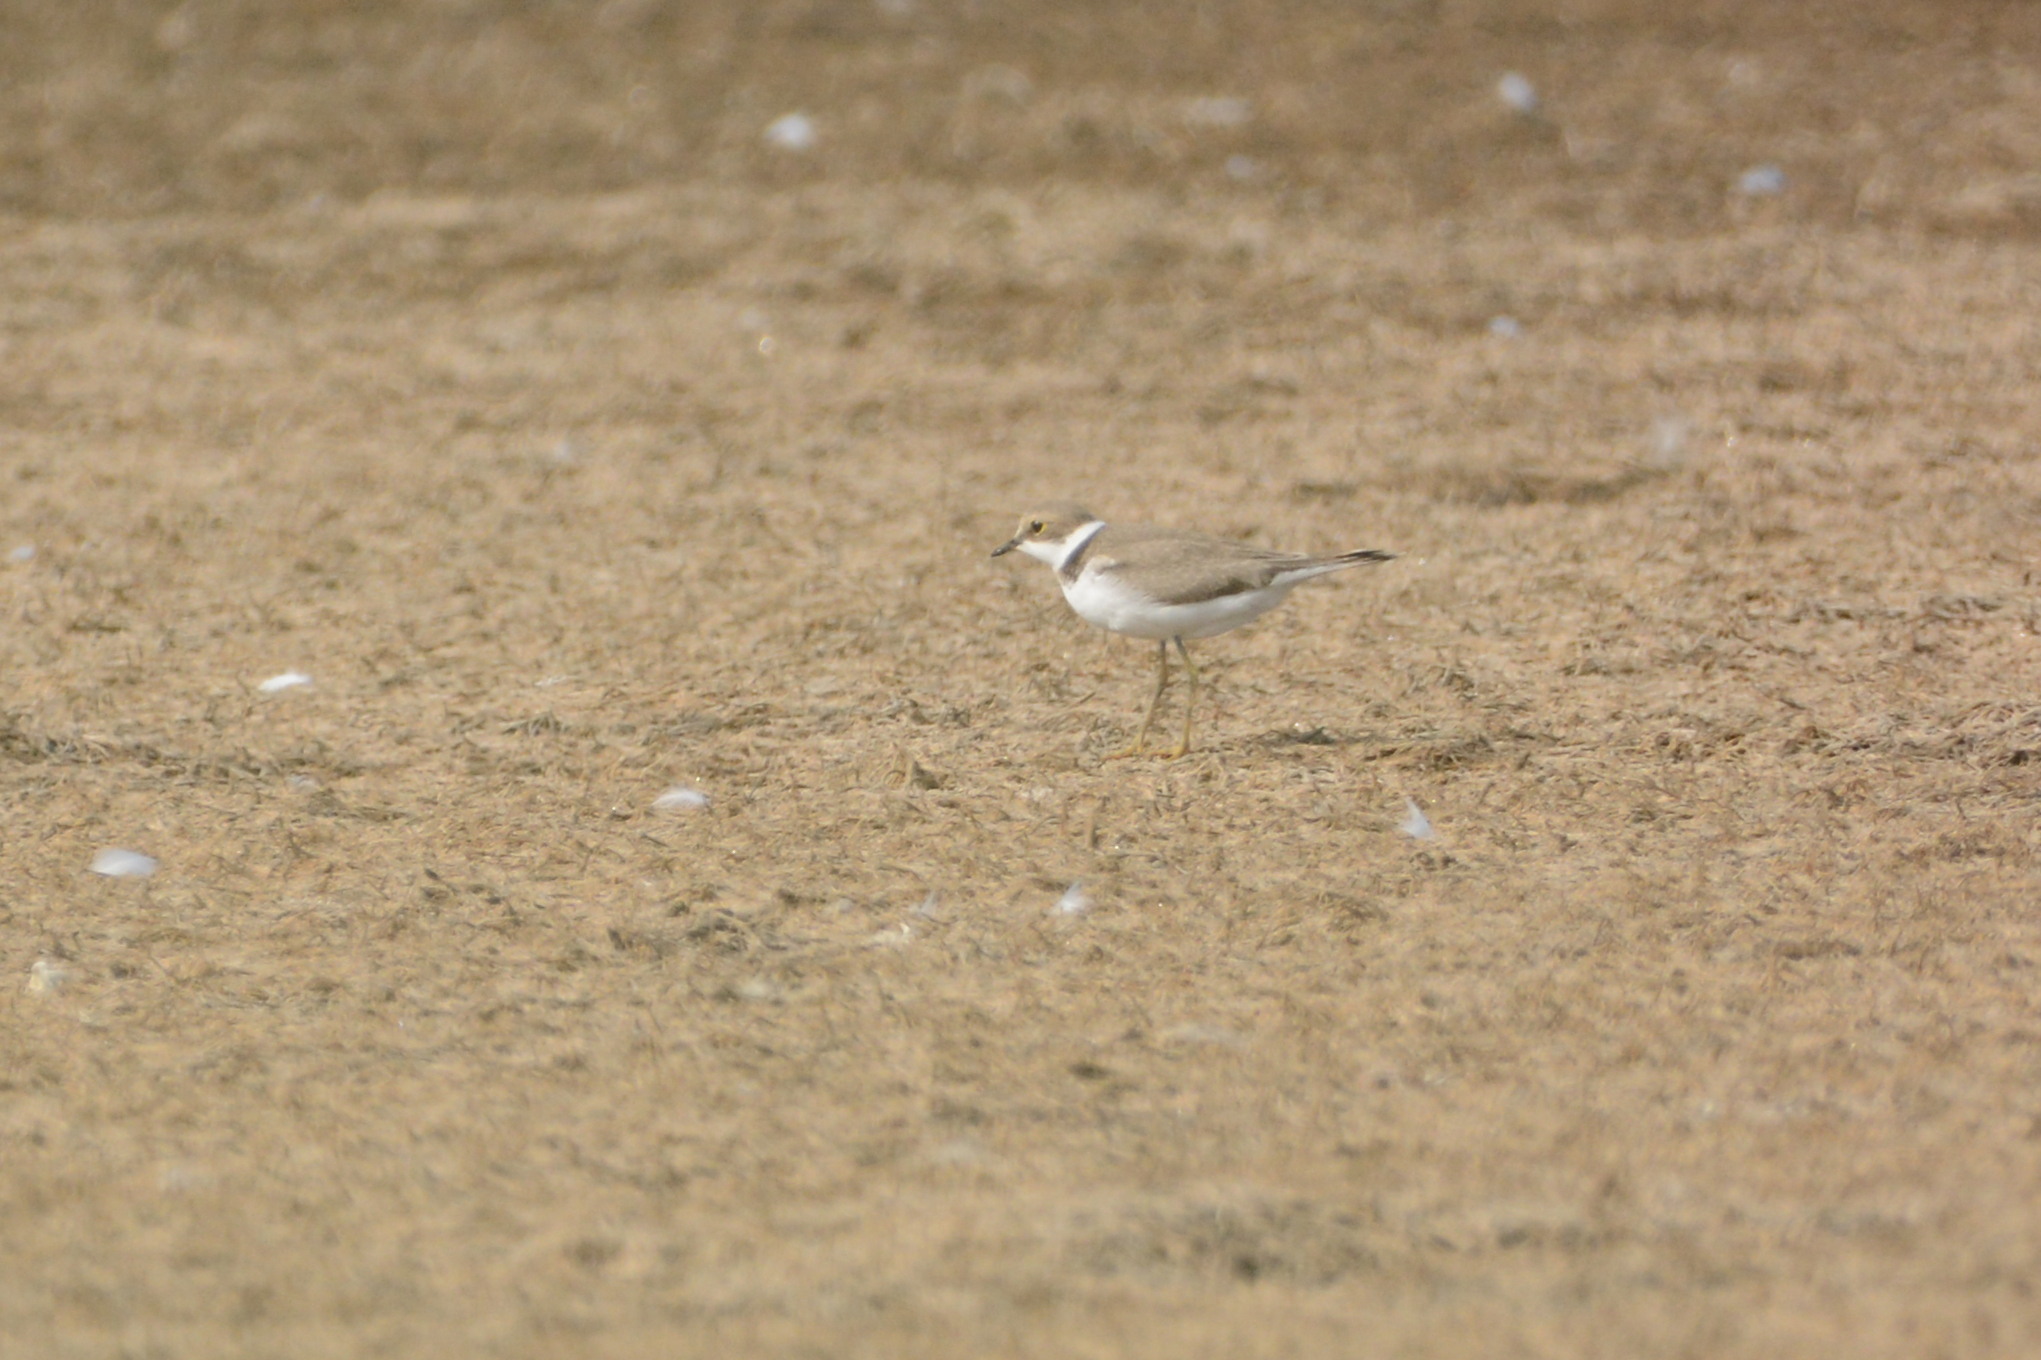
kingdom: Animalia
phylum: Chordata
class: Aves
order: Charadriiformes
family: Charadriidae
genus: Charadrius
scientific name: Charadrius dubius
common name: Little ringed plover
